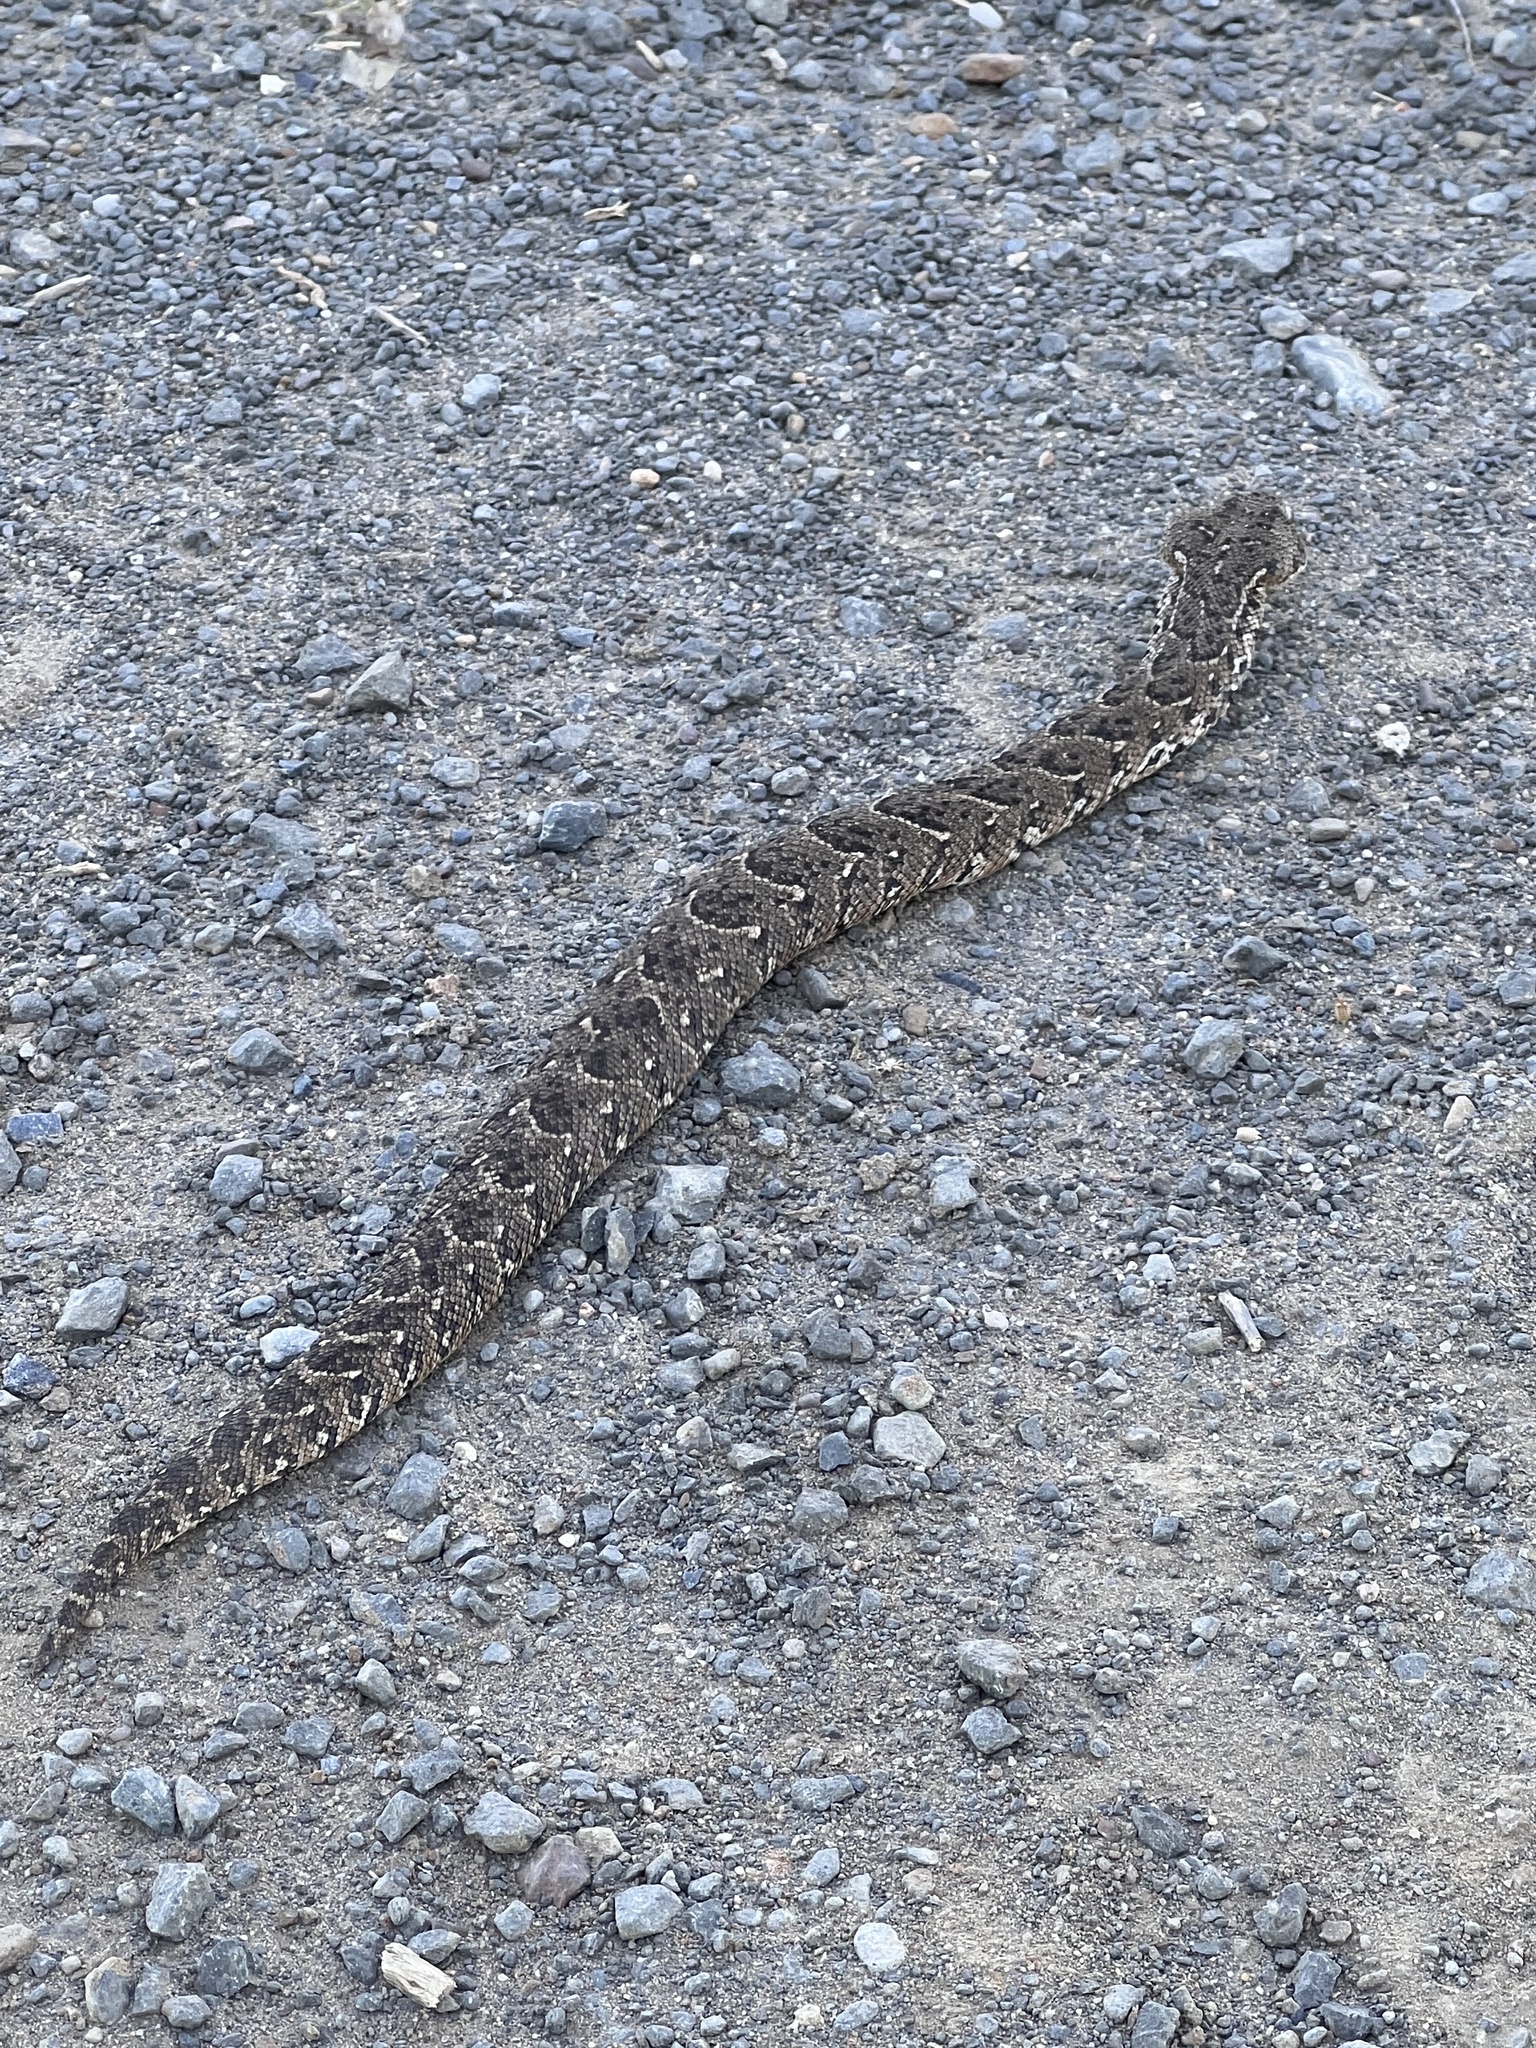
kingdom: Animalia
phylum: Chordata
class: Squamata
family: Viperidae
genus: Bitis
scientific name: Bitis arietans
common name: Puff adder
